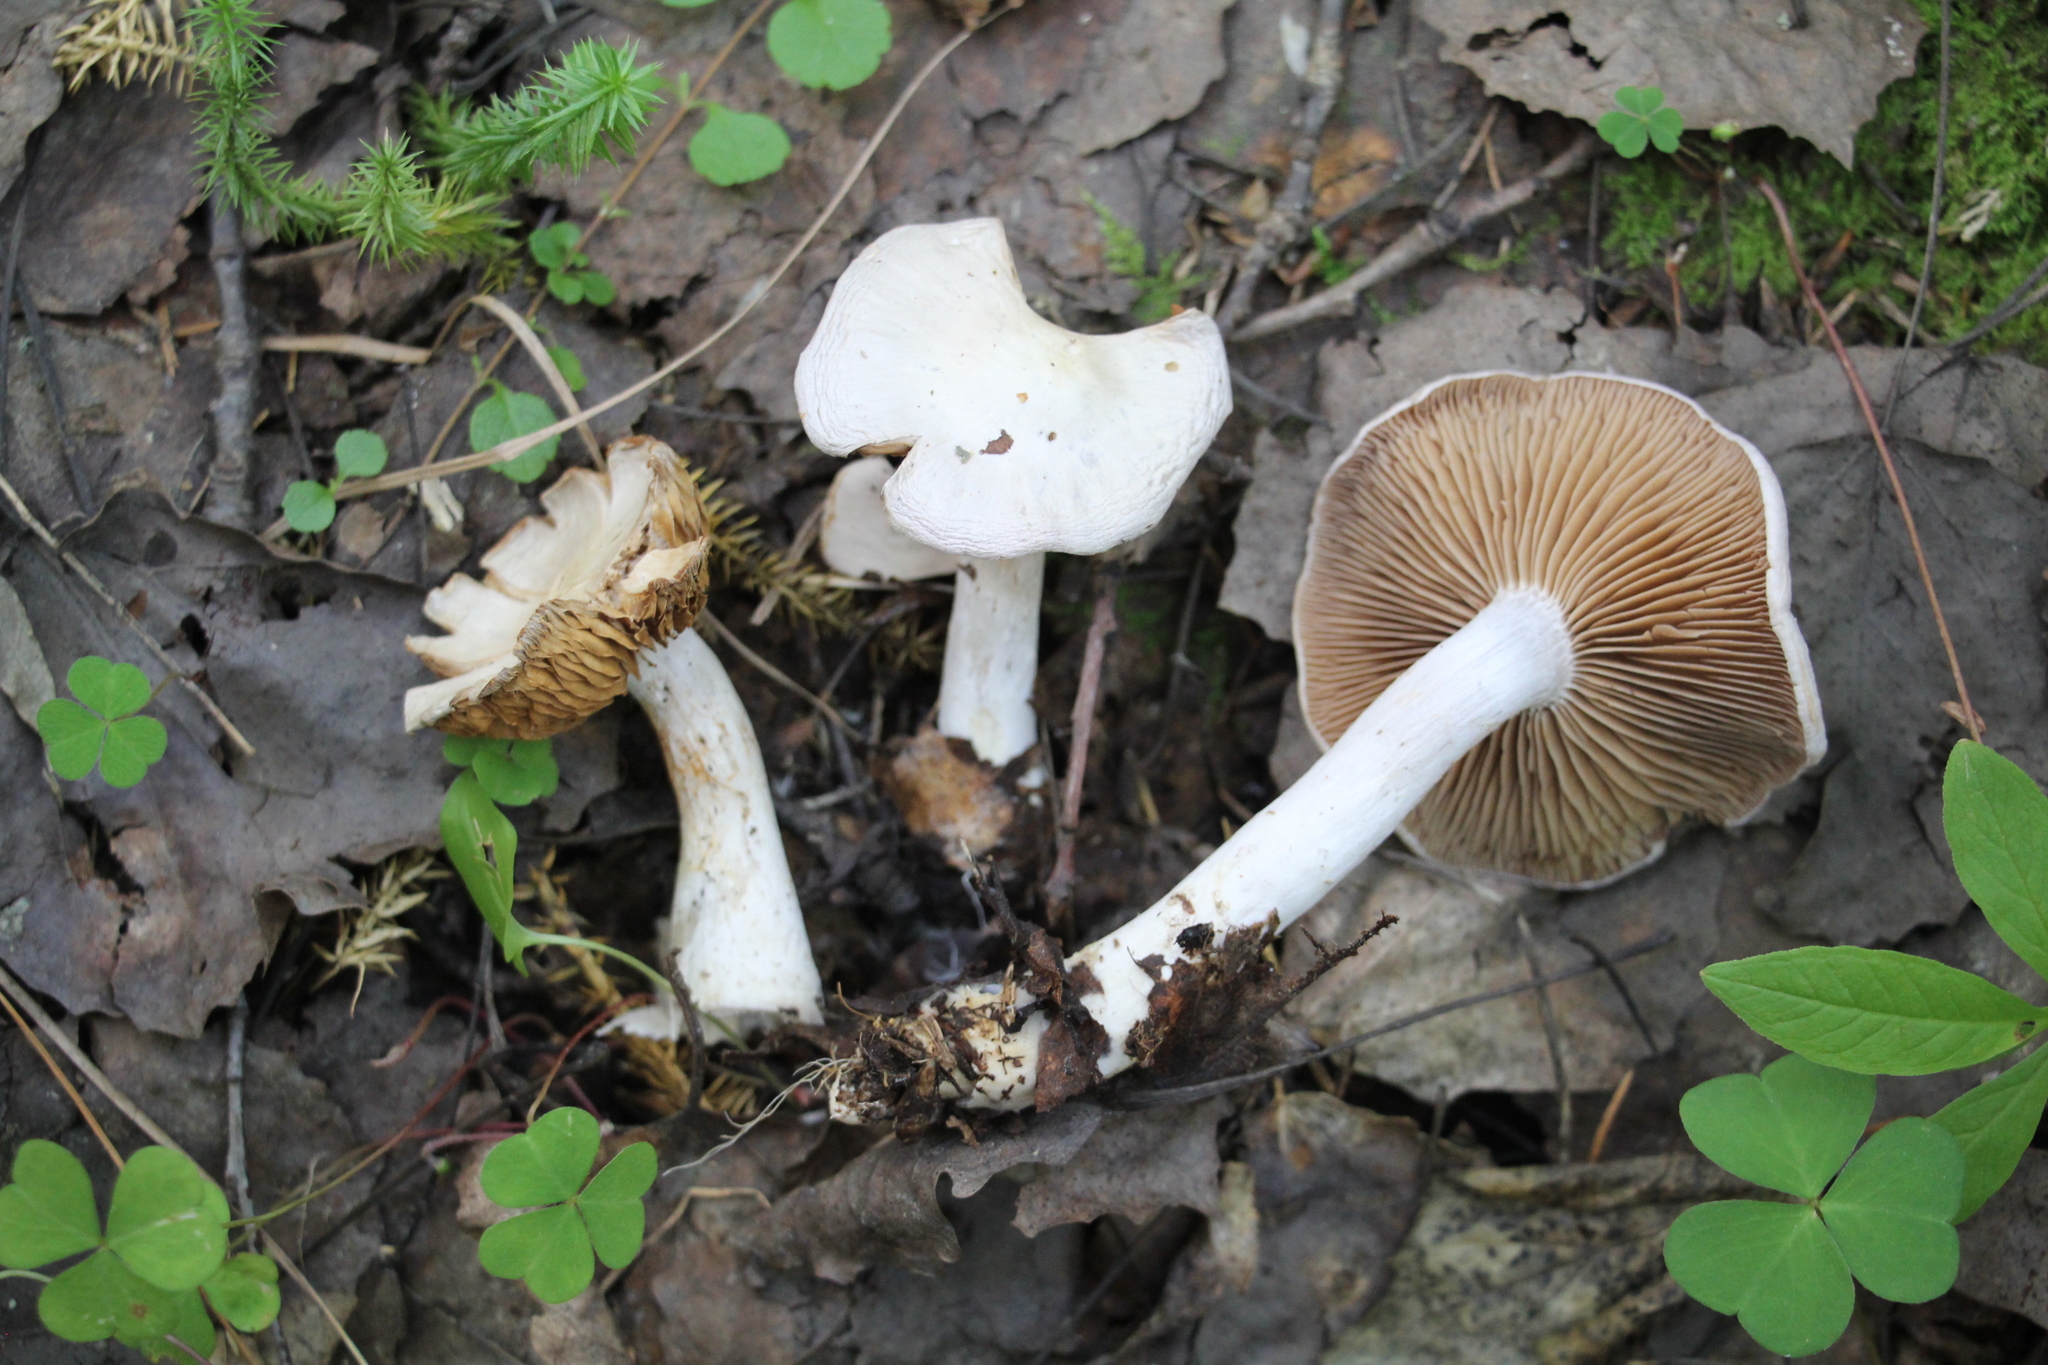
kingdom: Fungi
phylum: Basidiomycota
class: Agaricomycetes
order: Agaricales
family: Cortinariaceae
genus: Cortinarius
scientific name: Cortinarius alboviolaceus
